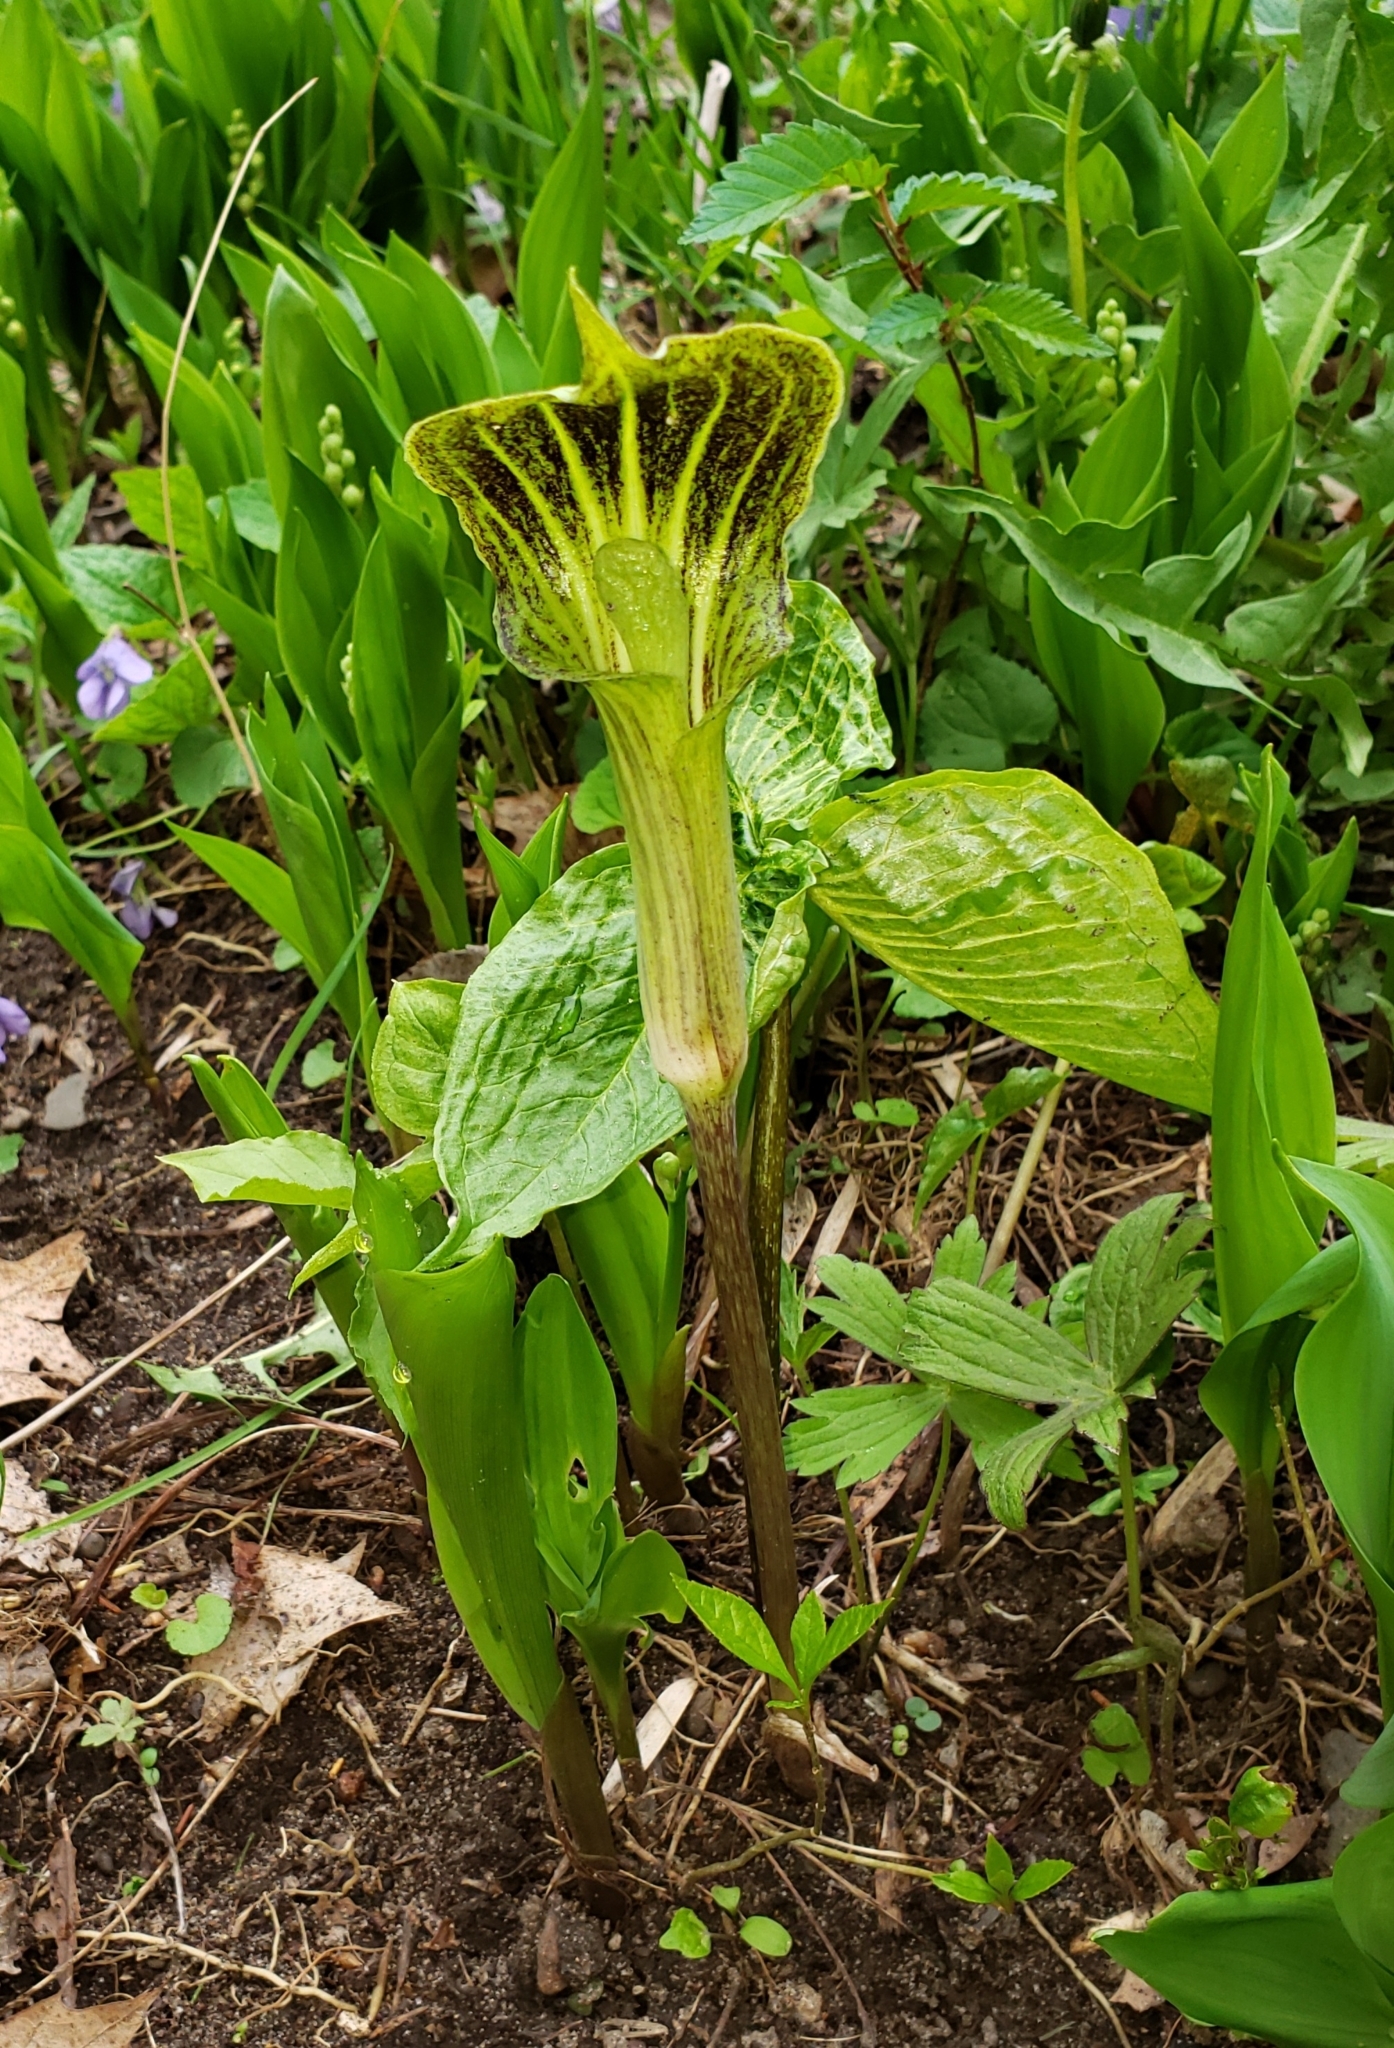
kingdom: Plantae
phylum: Tracheophyta
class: Liliopsida
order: Alismatales
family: Araceae
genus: Arisaema
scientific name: Arisaema triphyllum
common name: Jack-in-the-pulpit
